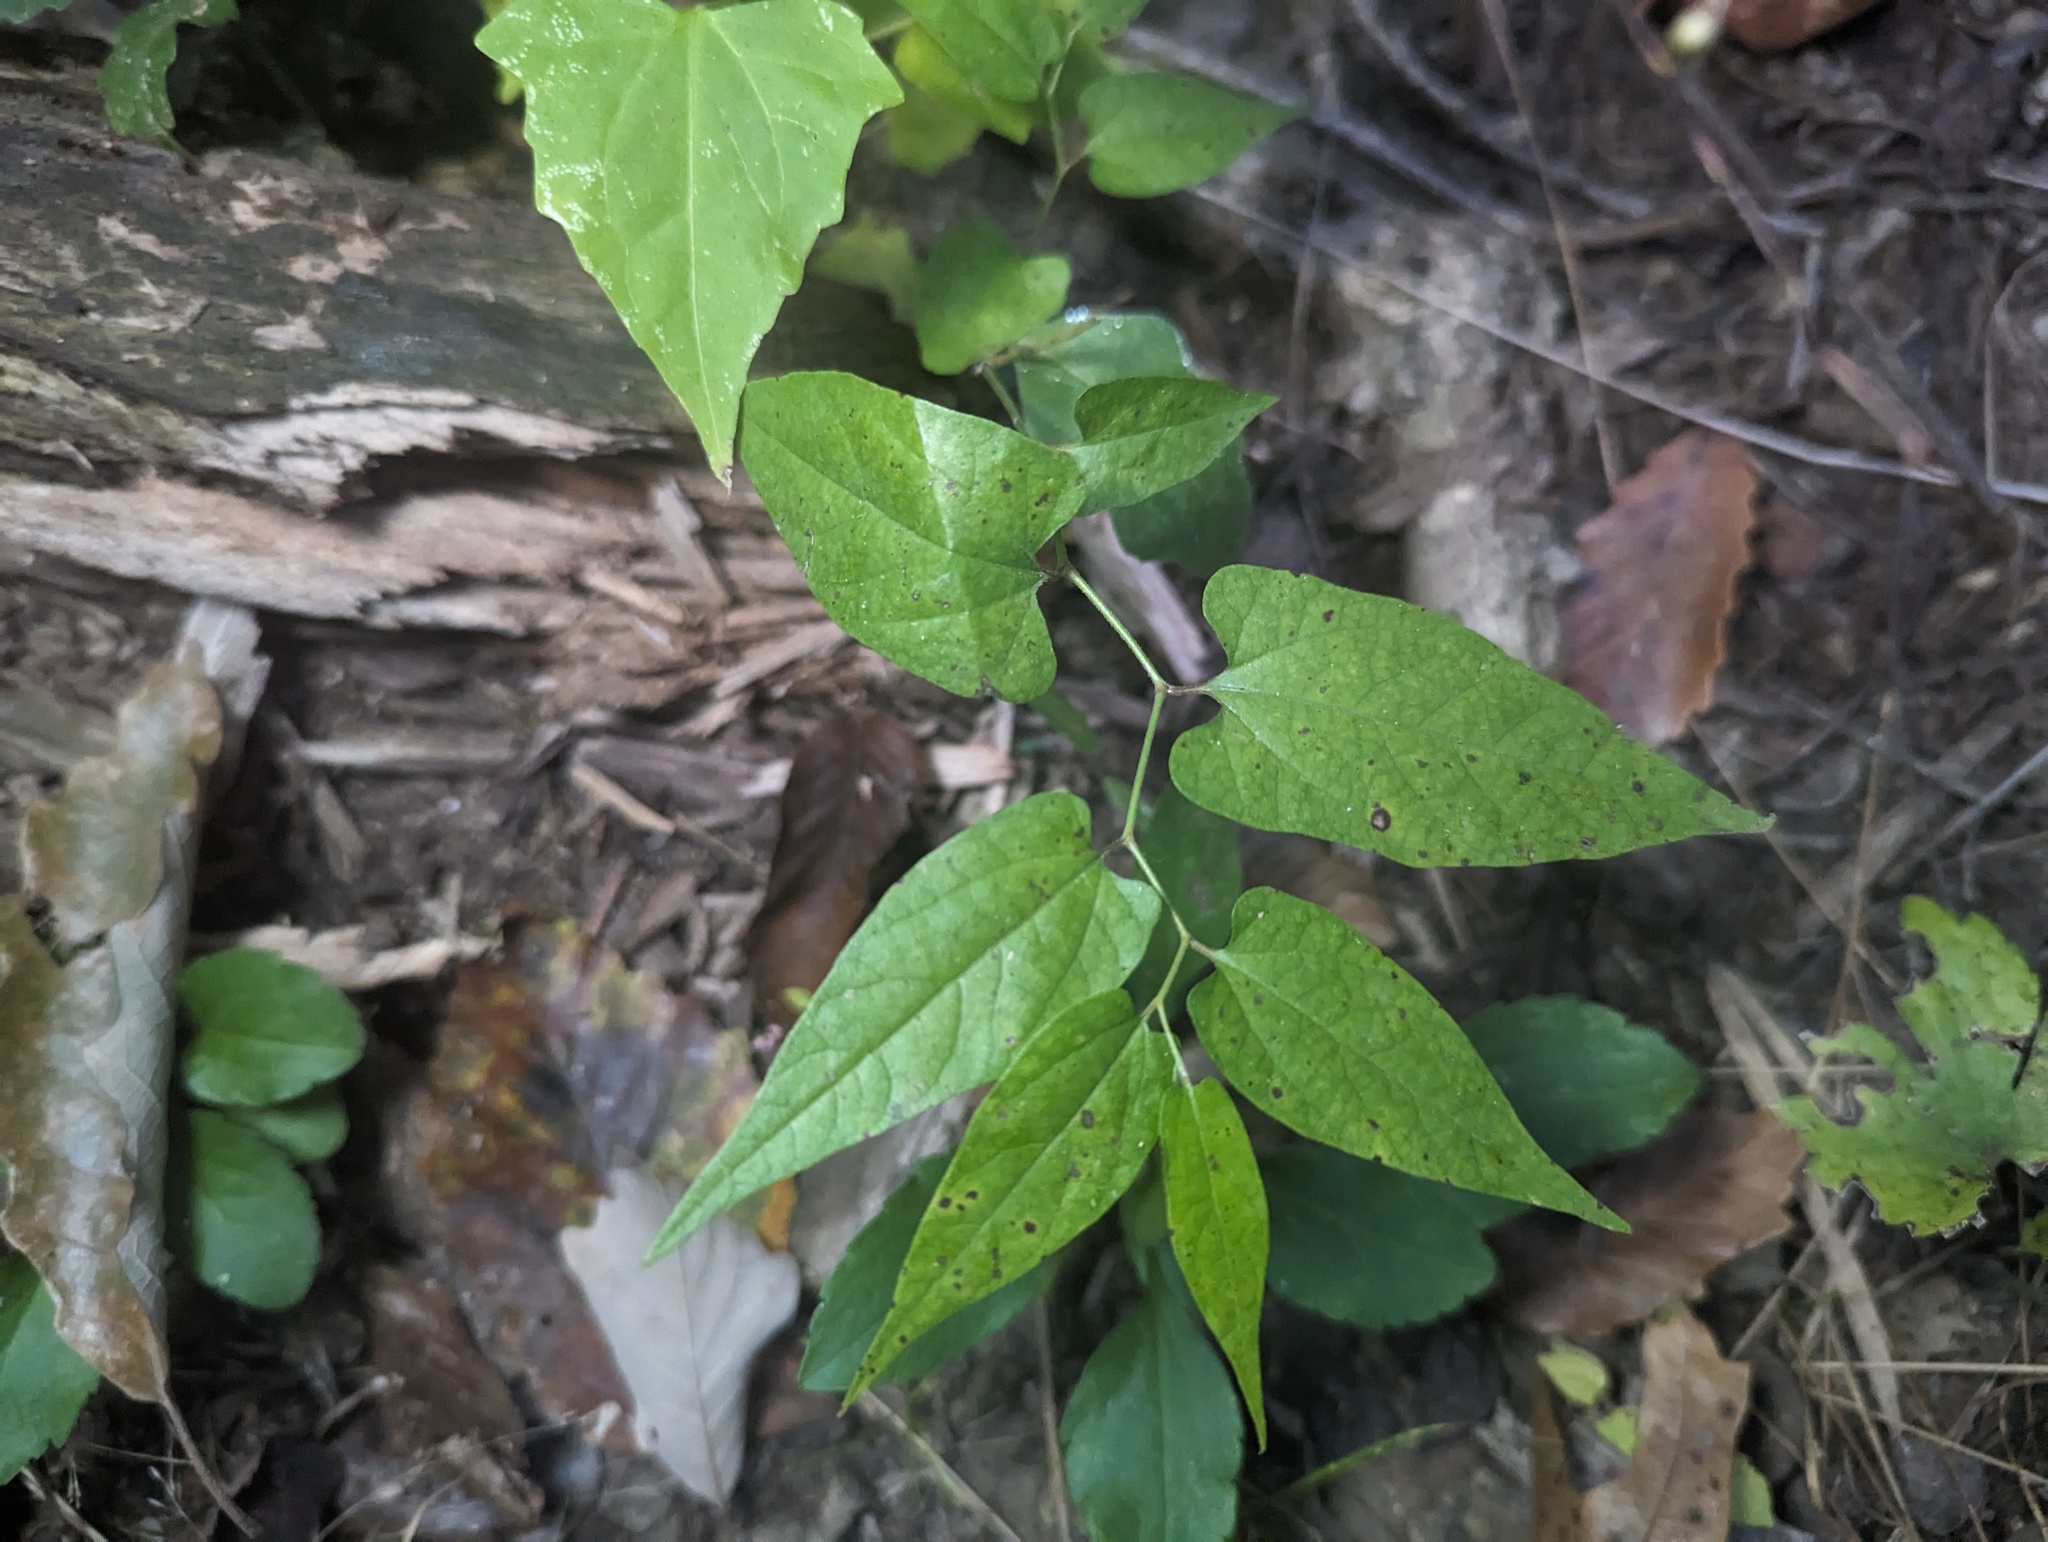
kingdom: Plantae
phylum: Tracheophyta
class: Magnoliopsida
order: Piperales
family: Aristolochiaceae
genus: Endodeca
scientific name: Endodeca serpentaria
